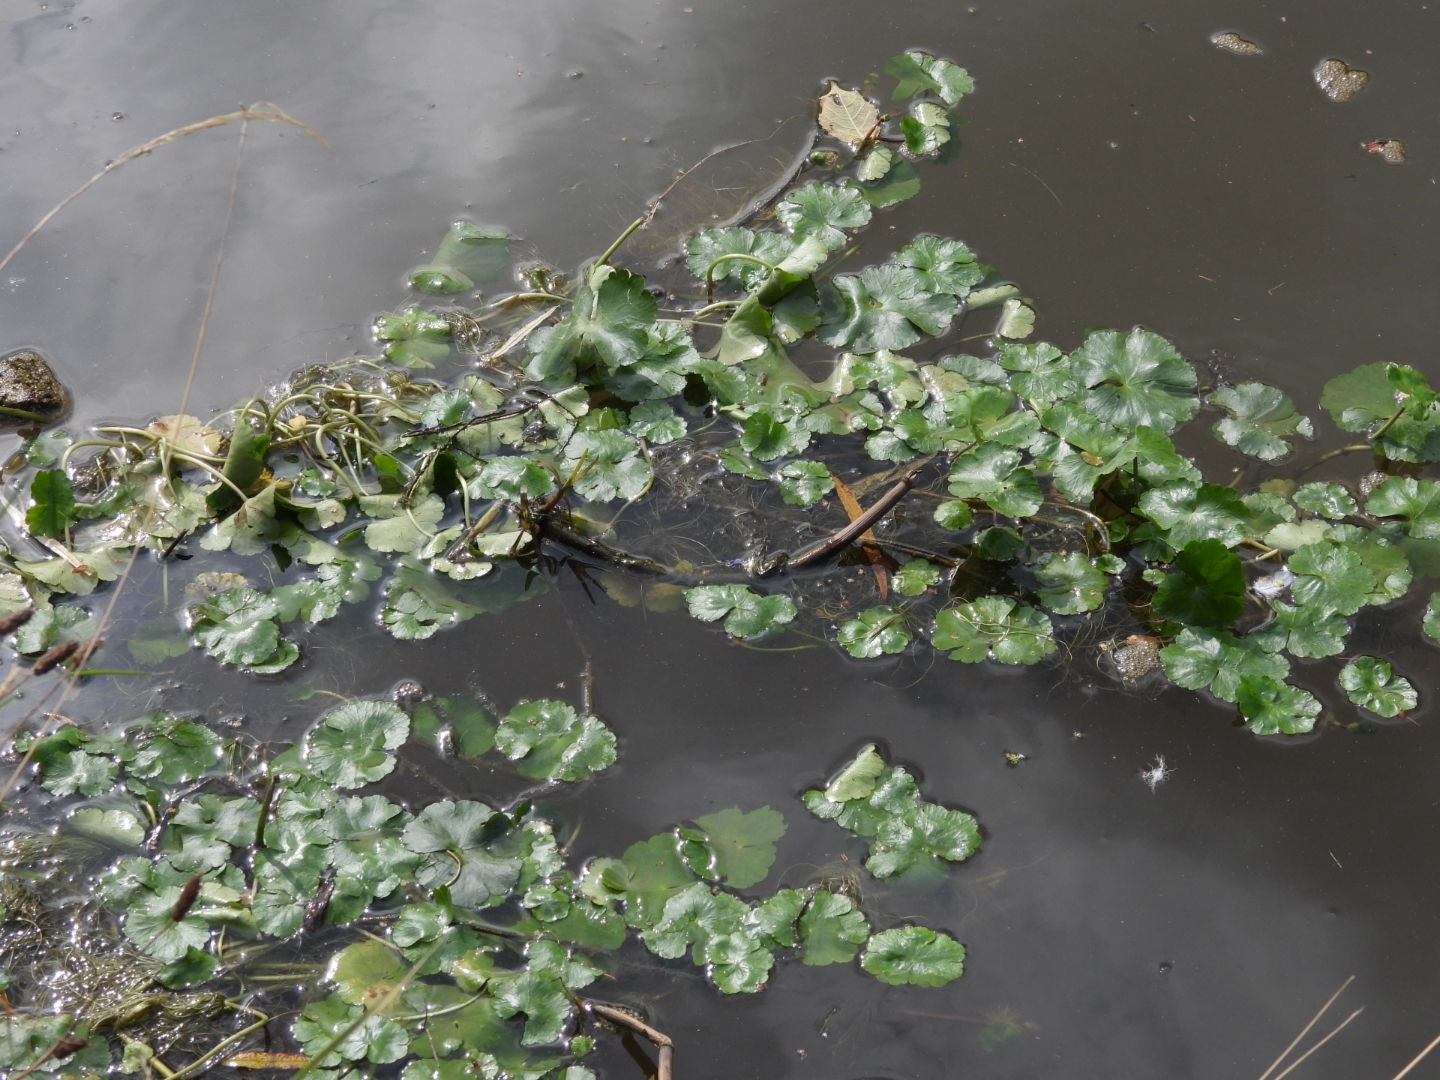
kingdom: Plantae
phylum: Tracheophyta
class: Magnoliopsida
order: Apiales
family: Araliaceae
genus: Hydrocotyle
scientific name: Hydrocotyle ranunculoides
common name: Floating pennywort
